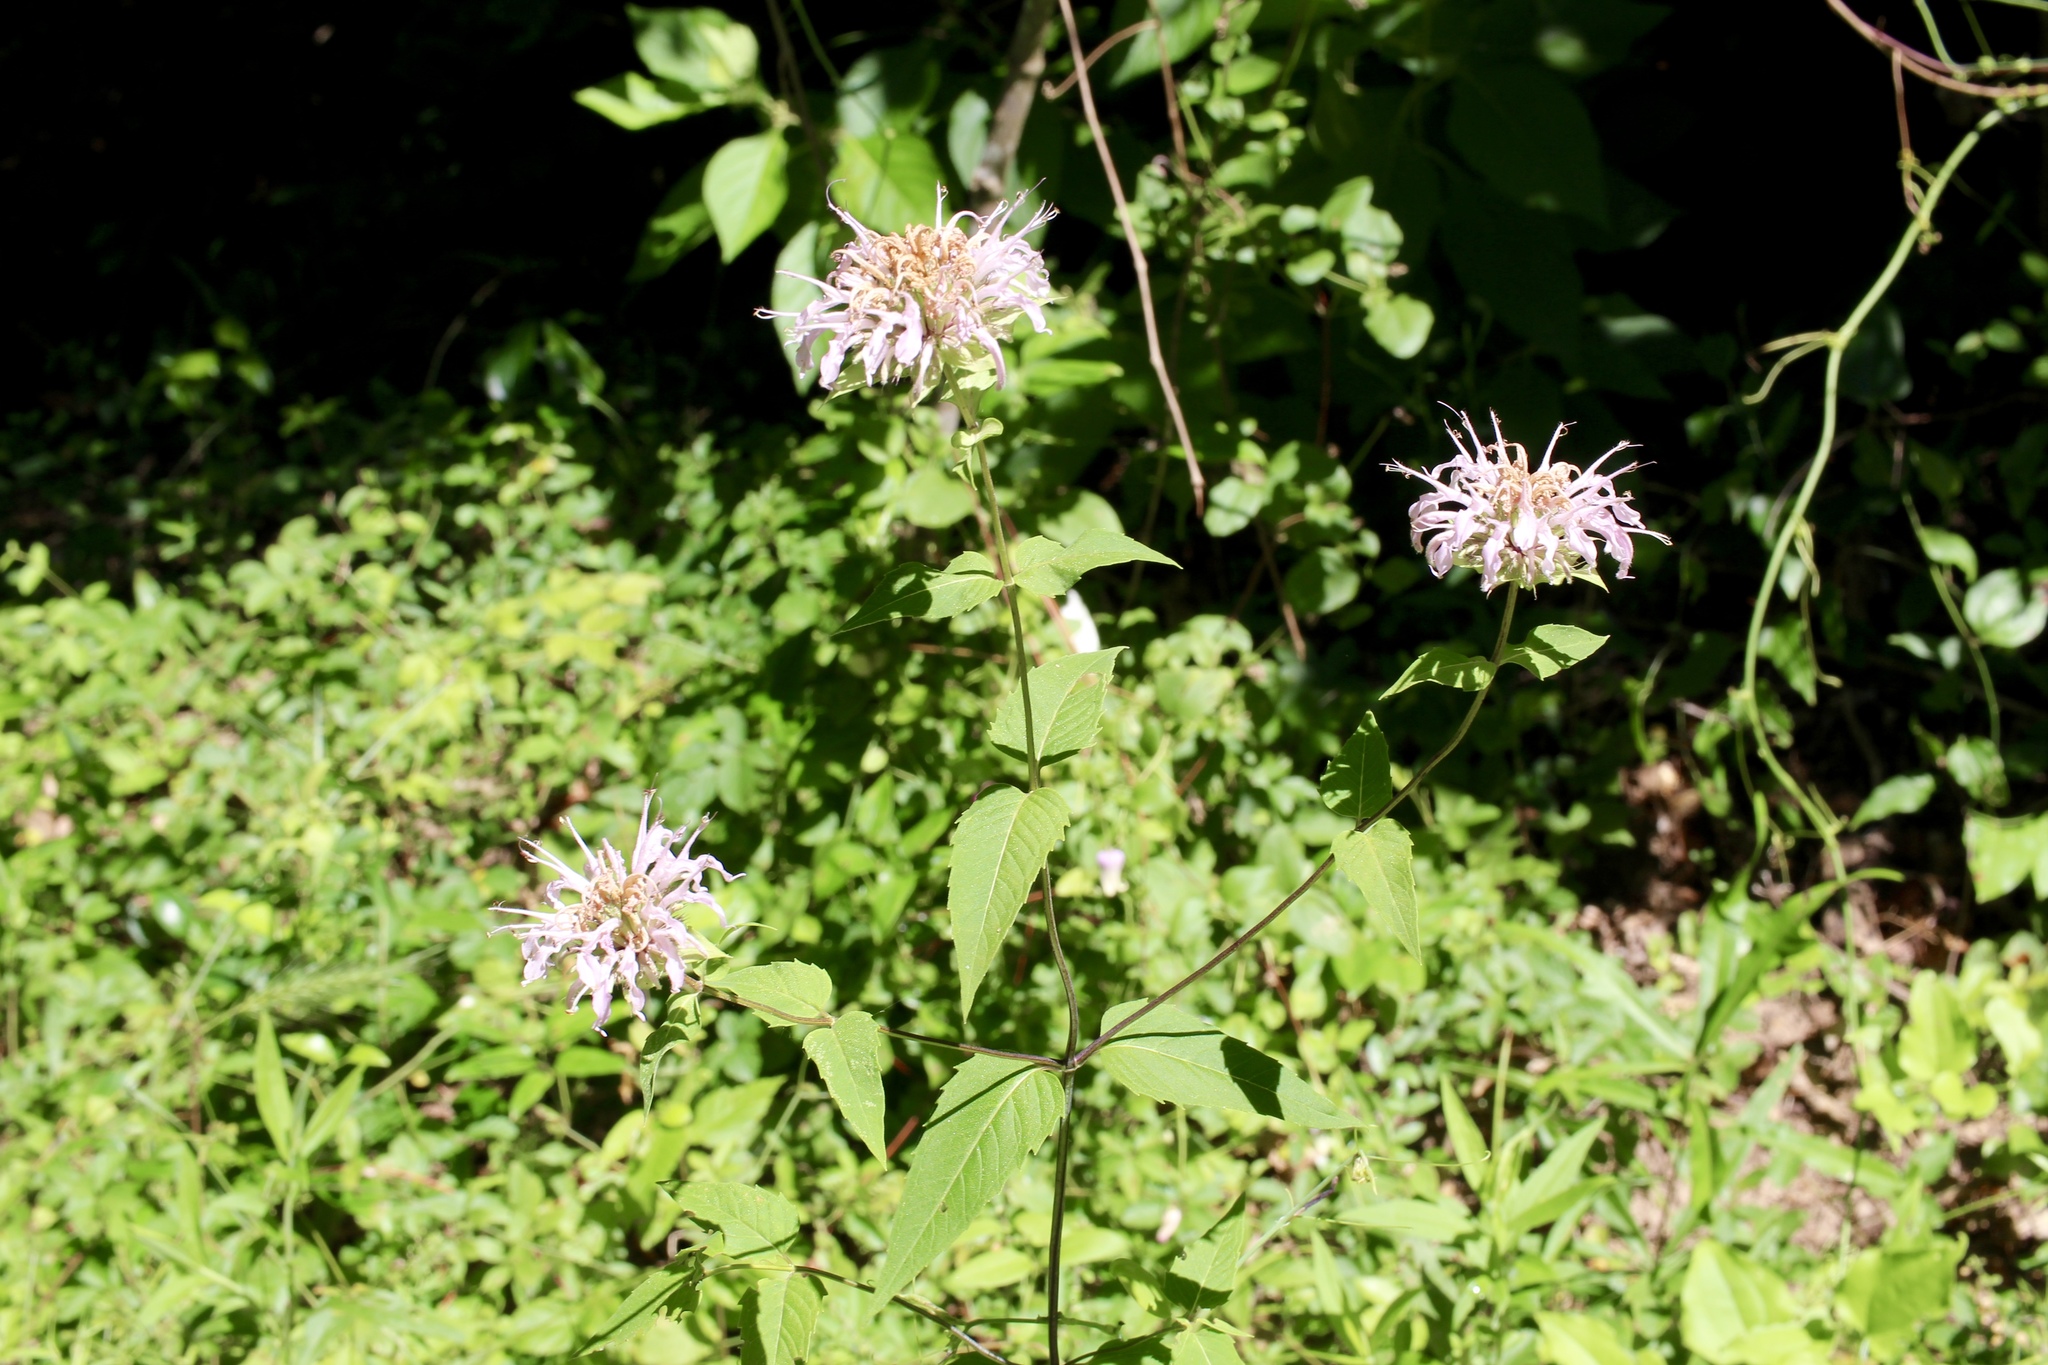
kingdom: Plantae
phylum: Tracheophyta
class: Magnoliopsida
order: Lamiales
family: Lamiaceae
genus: Monarda
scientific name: Monarda fistulosa
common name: Purple beebalm
